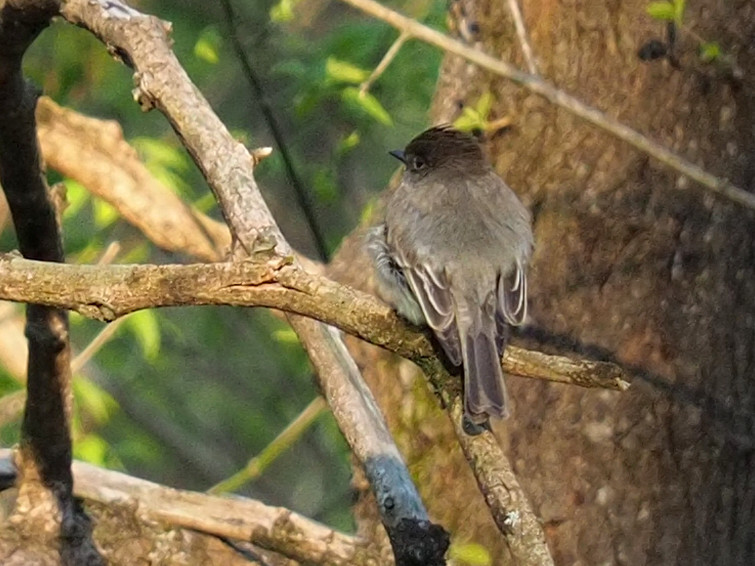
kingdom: Animalia
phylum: Chordata
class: Aves
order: Passeriformes
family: Tyrannidae
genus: Sayornis
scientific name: Sayornis phoebe
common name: Eastern phoebe
